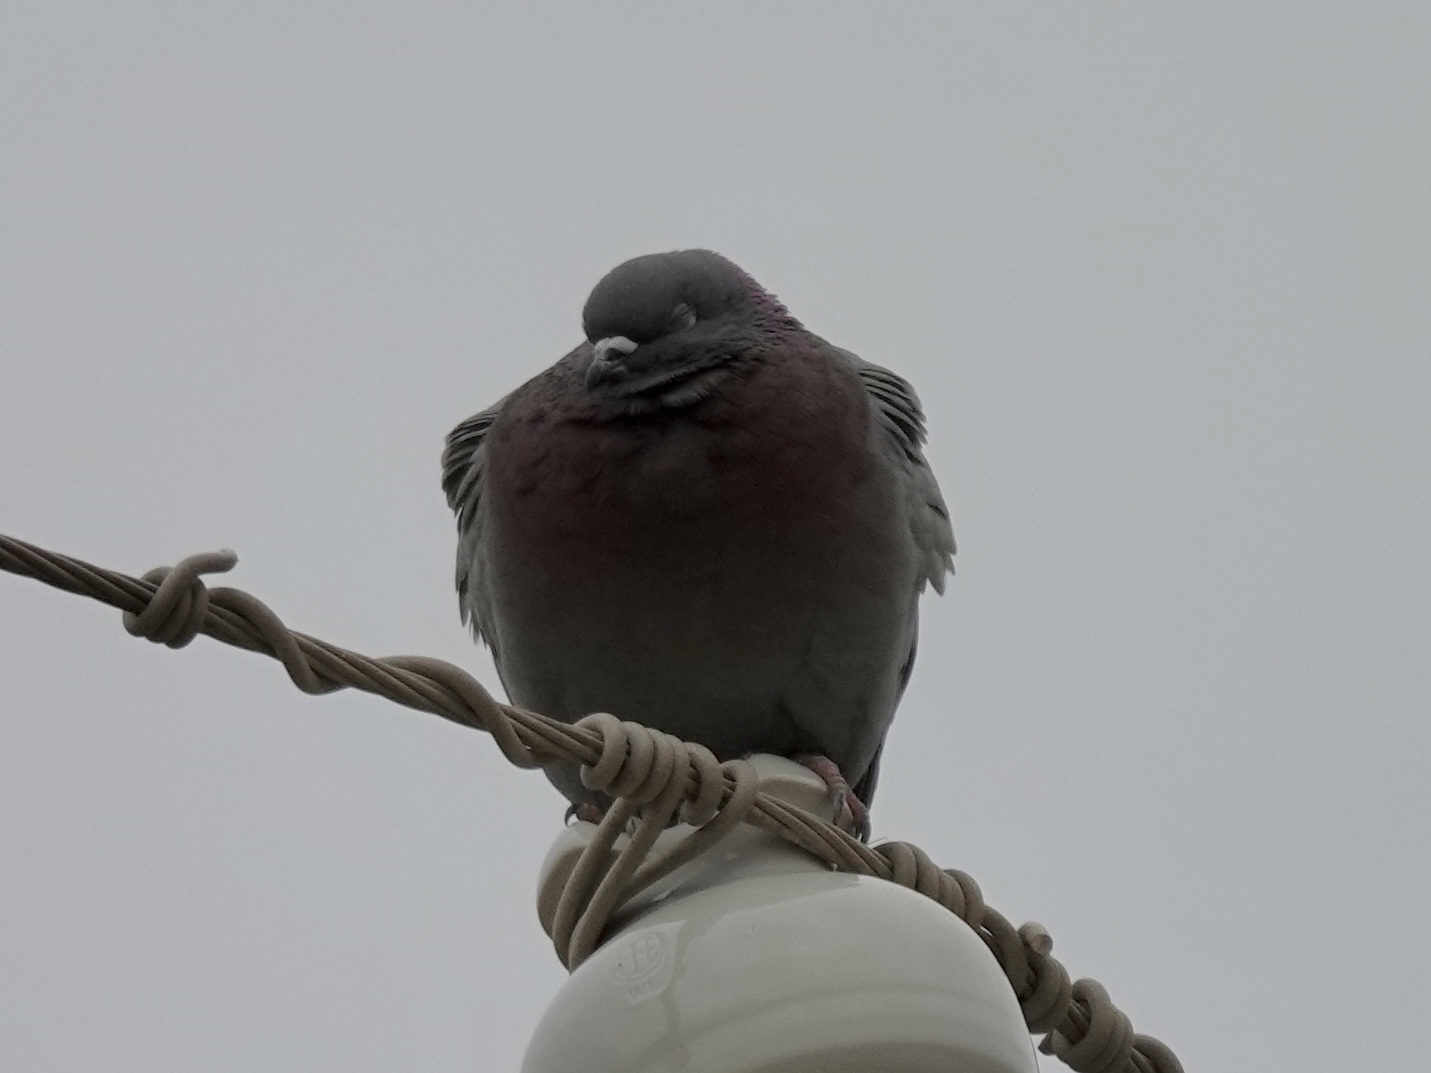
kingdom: Animalia
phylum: Chordata
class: Aves
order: Columbiformes
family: Columbidae
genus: Columba
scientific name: Columba livia
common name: Rock pigeon
